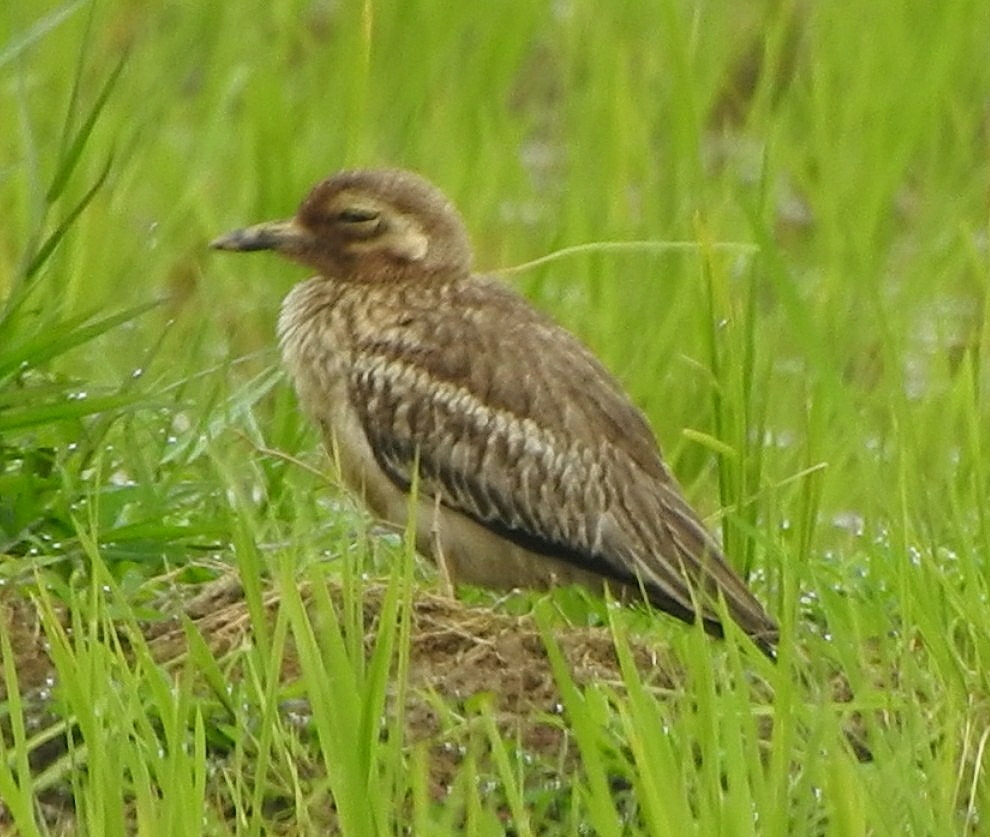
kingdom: Animalia
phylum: Chordata
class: Aves
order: Charadriiformes
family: Burhinidae
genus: Burhinus
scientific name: Burhinus indicus
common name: Indian thick-knee
